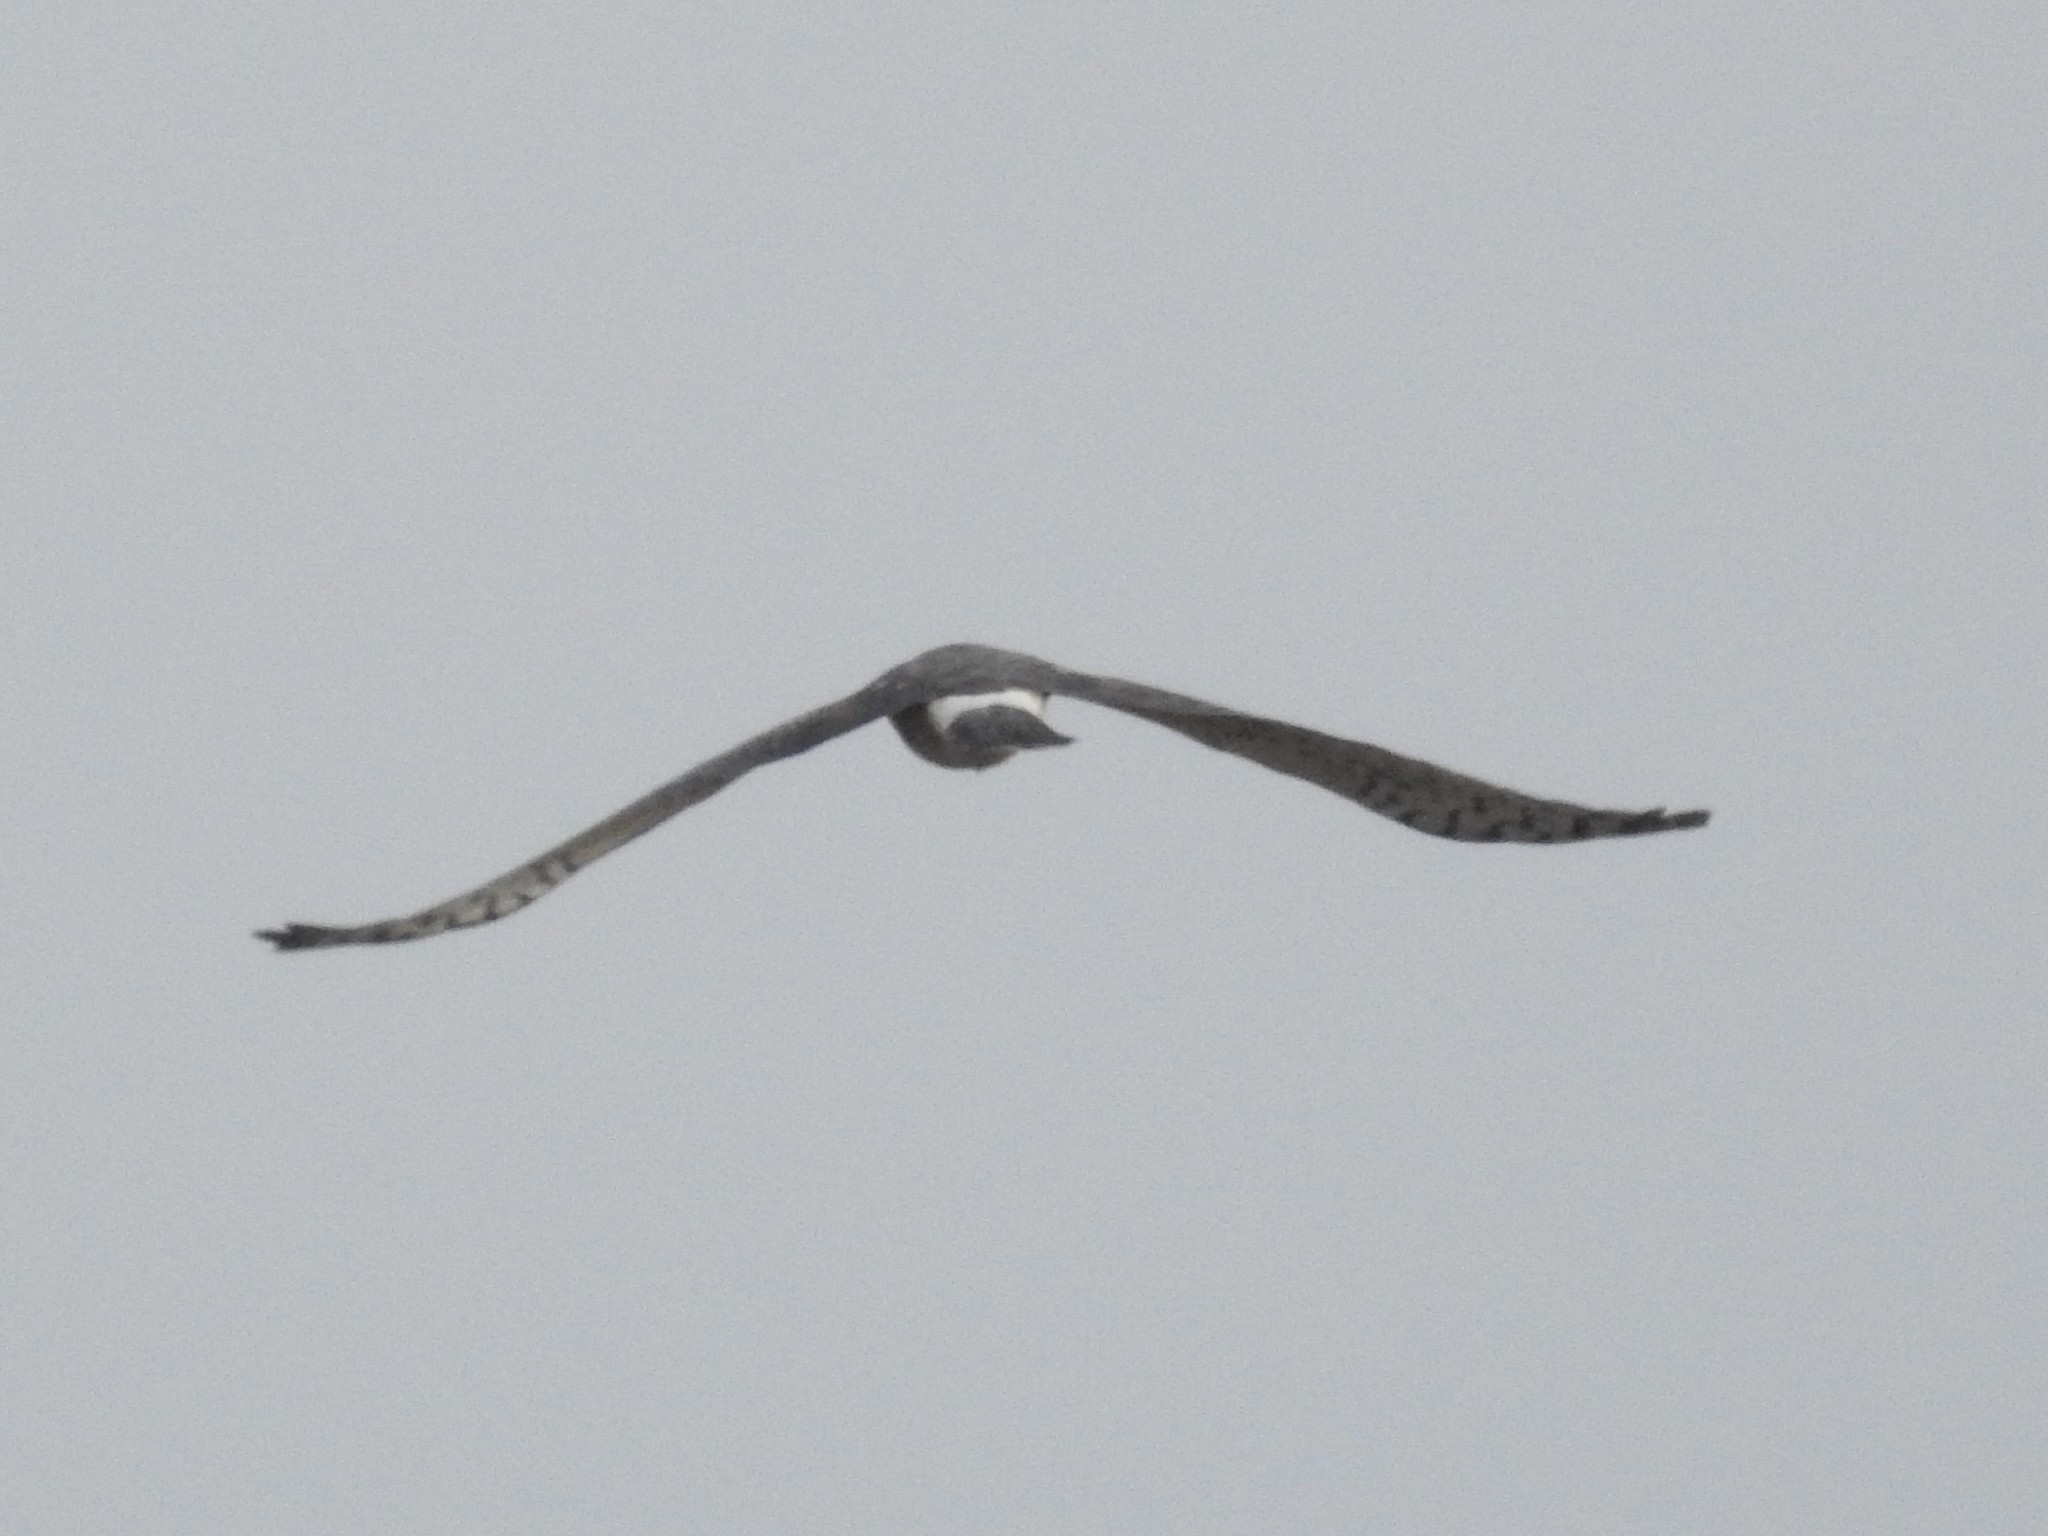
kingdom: Animalia
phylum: Chordata
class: Aves
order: Accipitriformes
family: Accipitridae
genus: Circus
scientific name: Circus cyaneus
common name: Hen harrier
